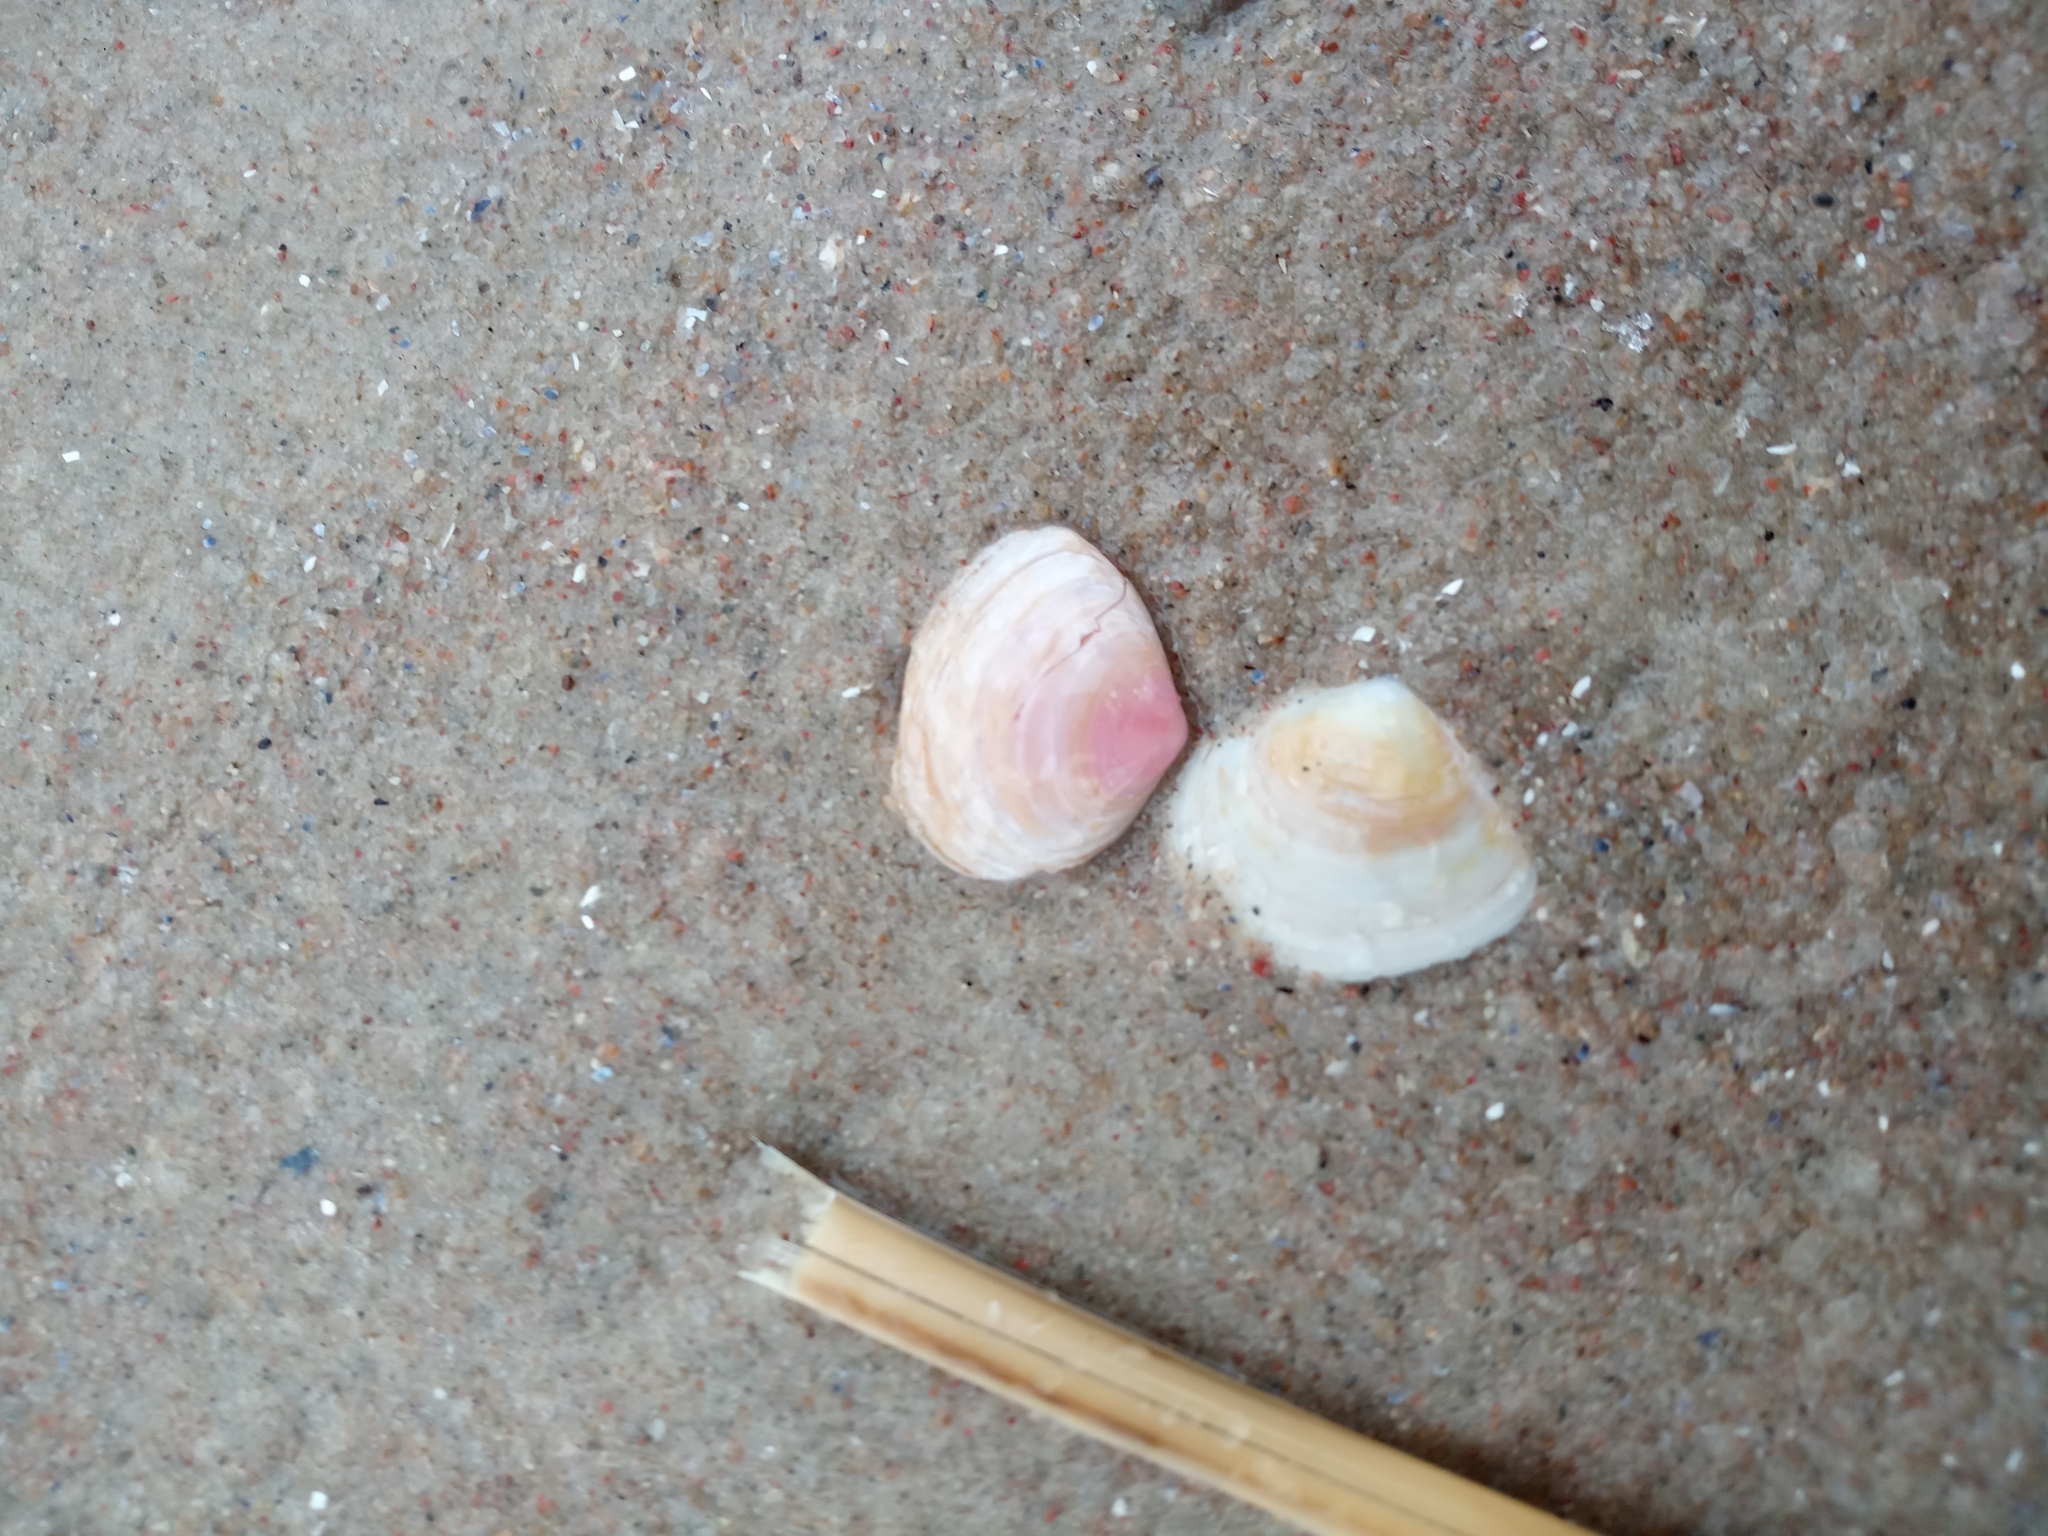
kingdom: Animalia
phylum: Mollusca
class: Bivalvia
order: Cardiida
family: Tellinidae
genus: Macoma
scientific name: Macoma balthica
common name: Baltic tellin
